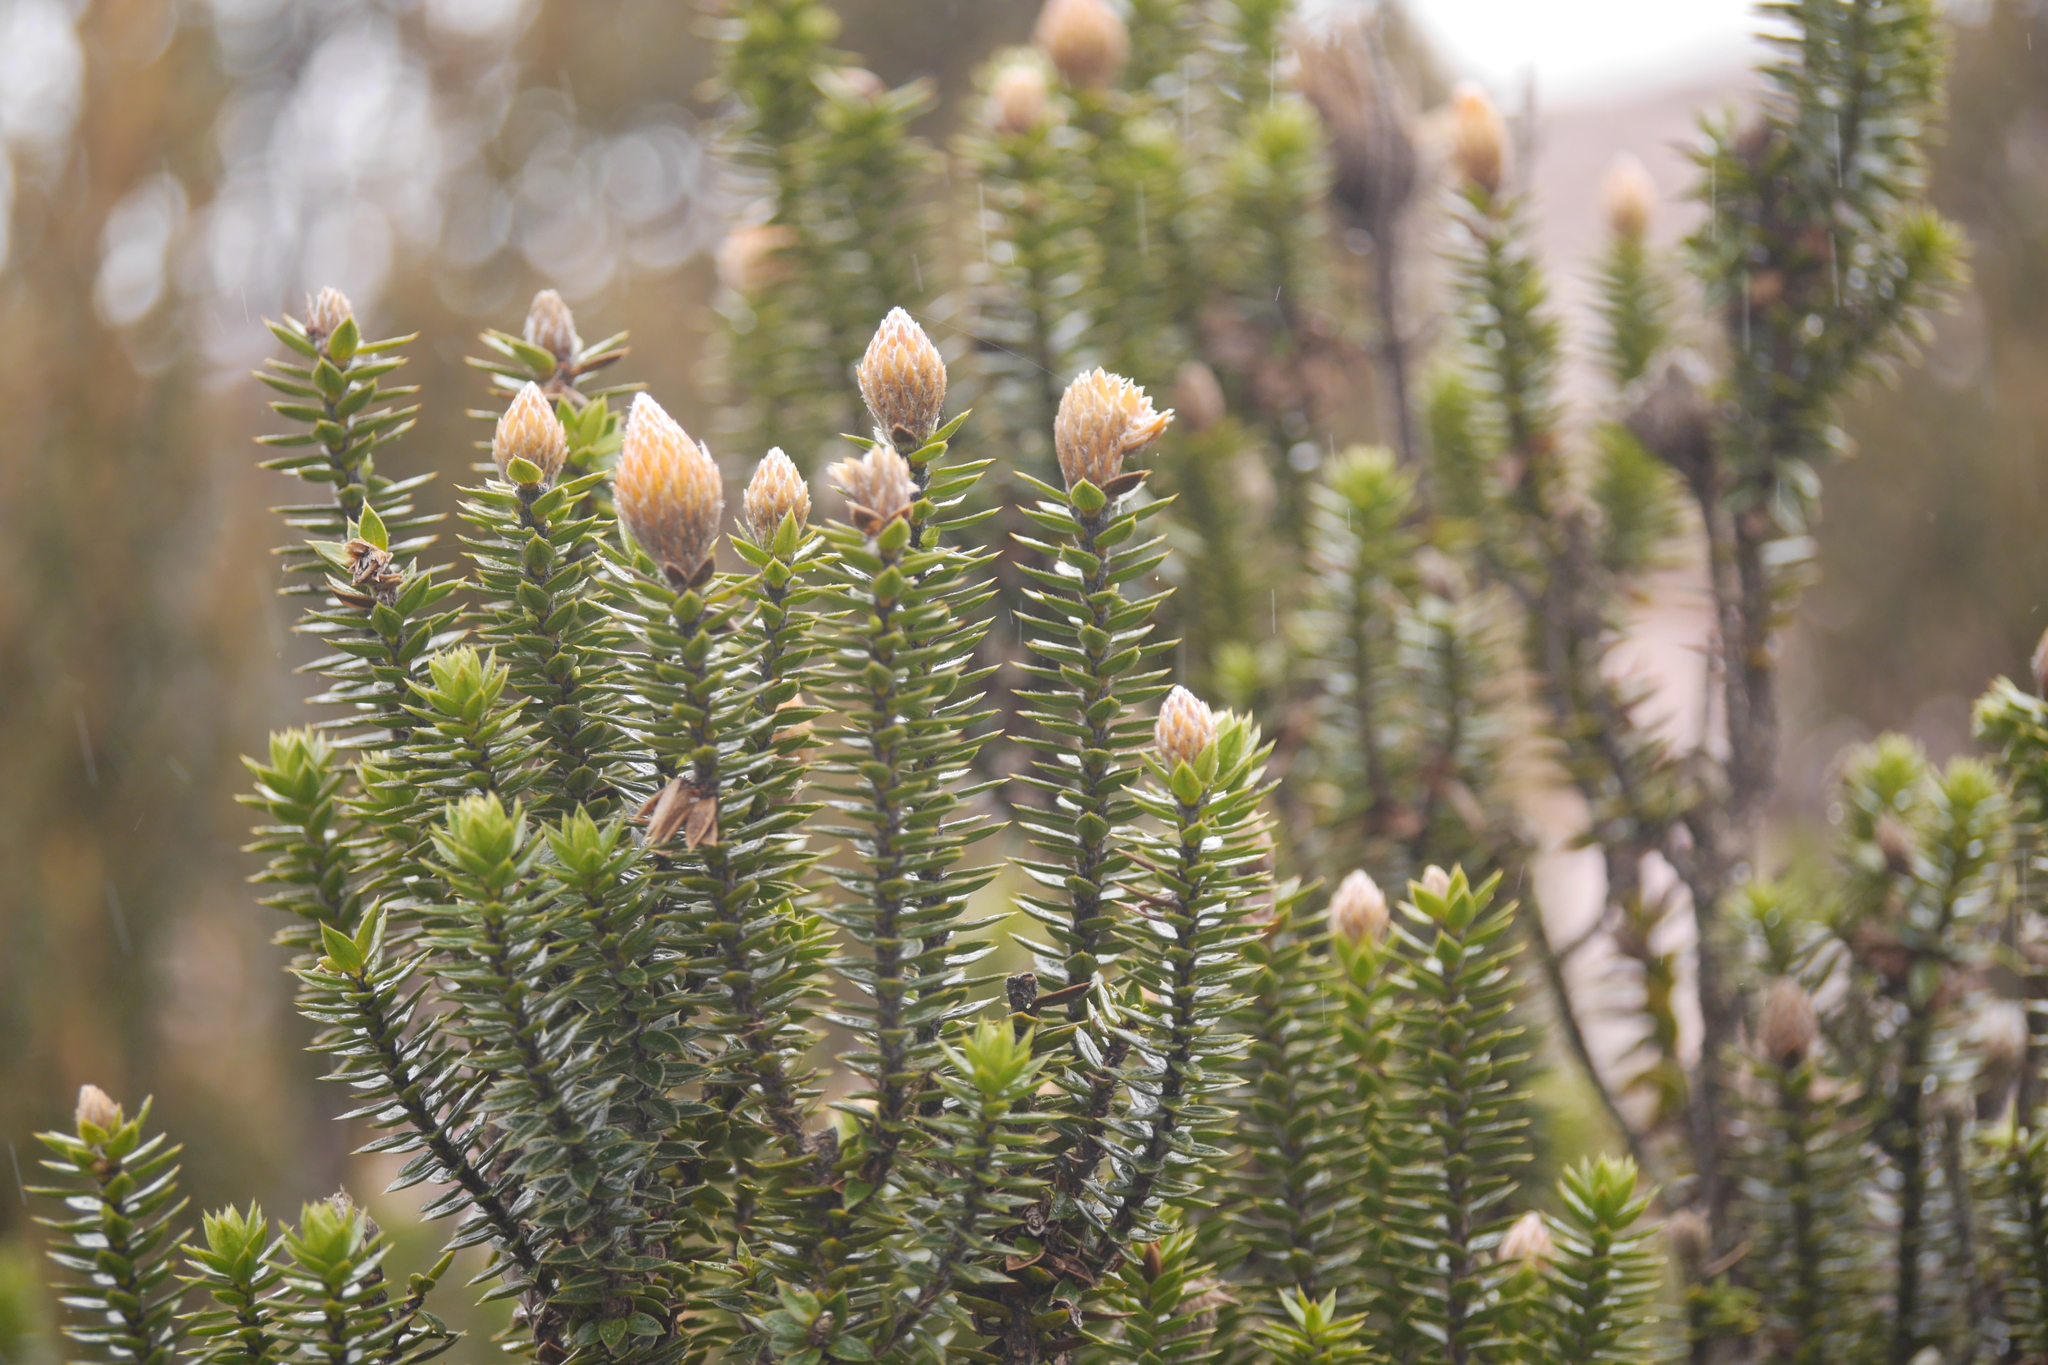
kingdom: Plantae
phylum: Tracheophyta
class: Magnoliopsida
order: Asterales
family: Asteraceae
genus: Chuquiraga
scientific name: Chuquiraga jussieui
